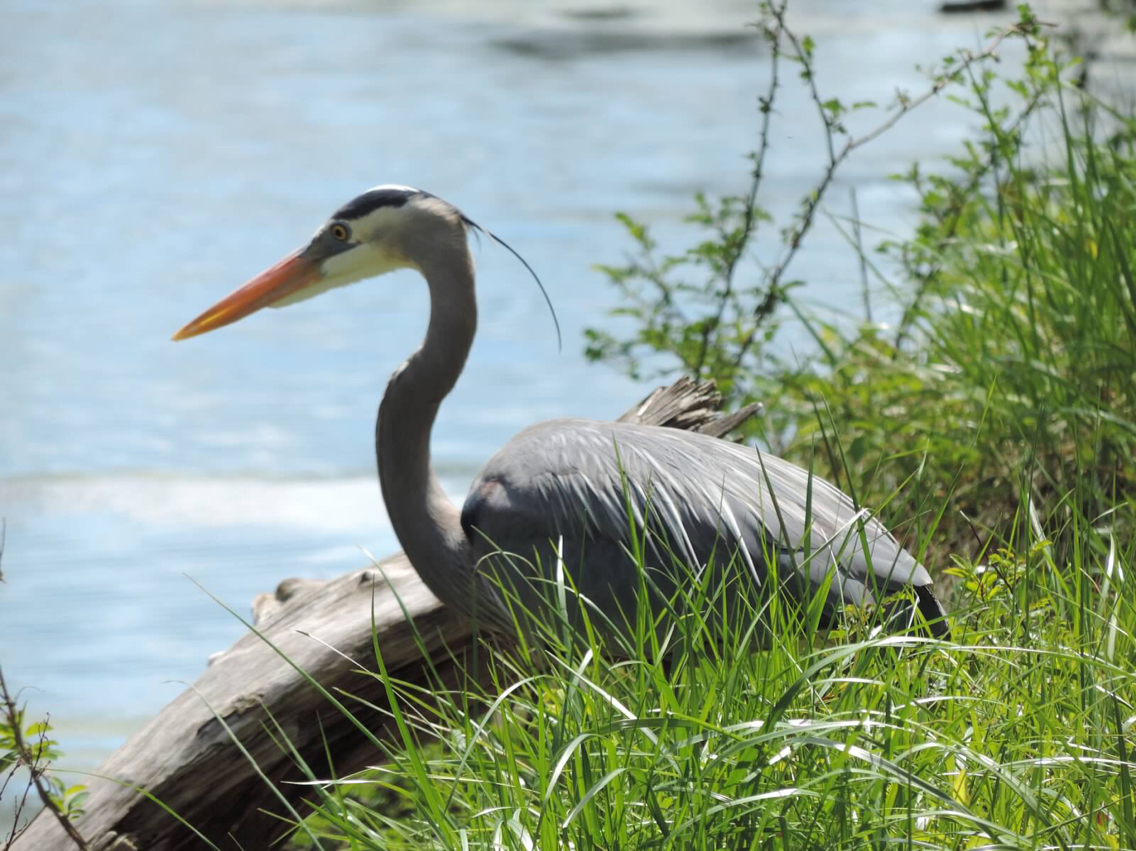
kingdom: Animalia
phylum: Chordata
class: Aves
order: Pelecaniformes
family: Ardeidae
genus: Ardea
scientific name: Ardea herodias
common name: Great blue heron
